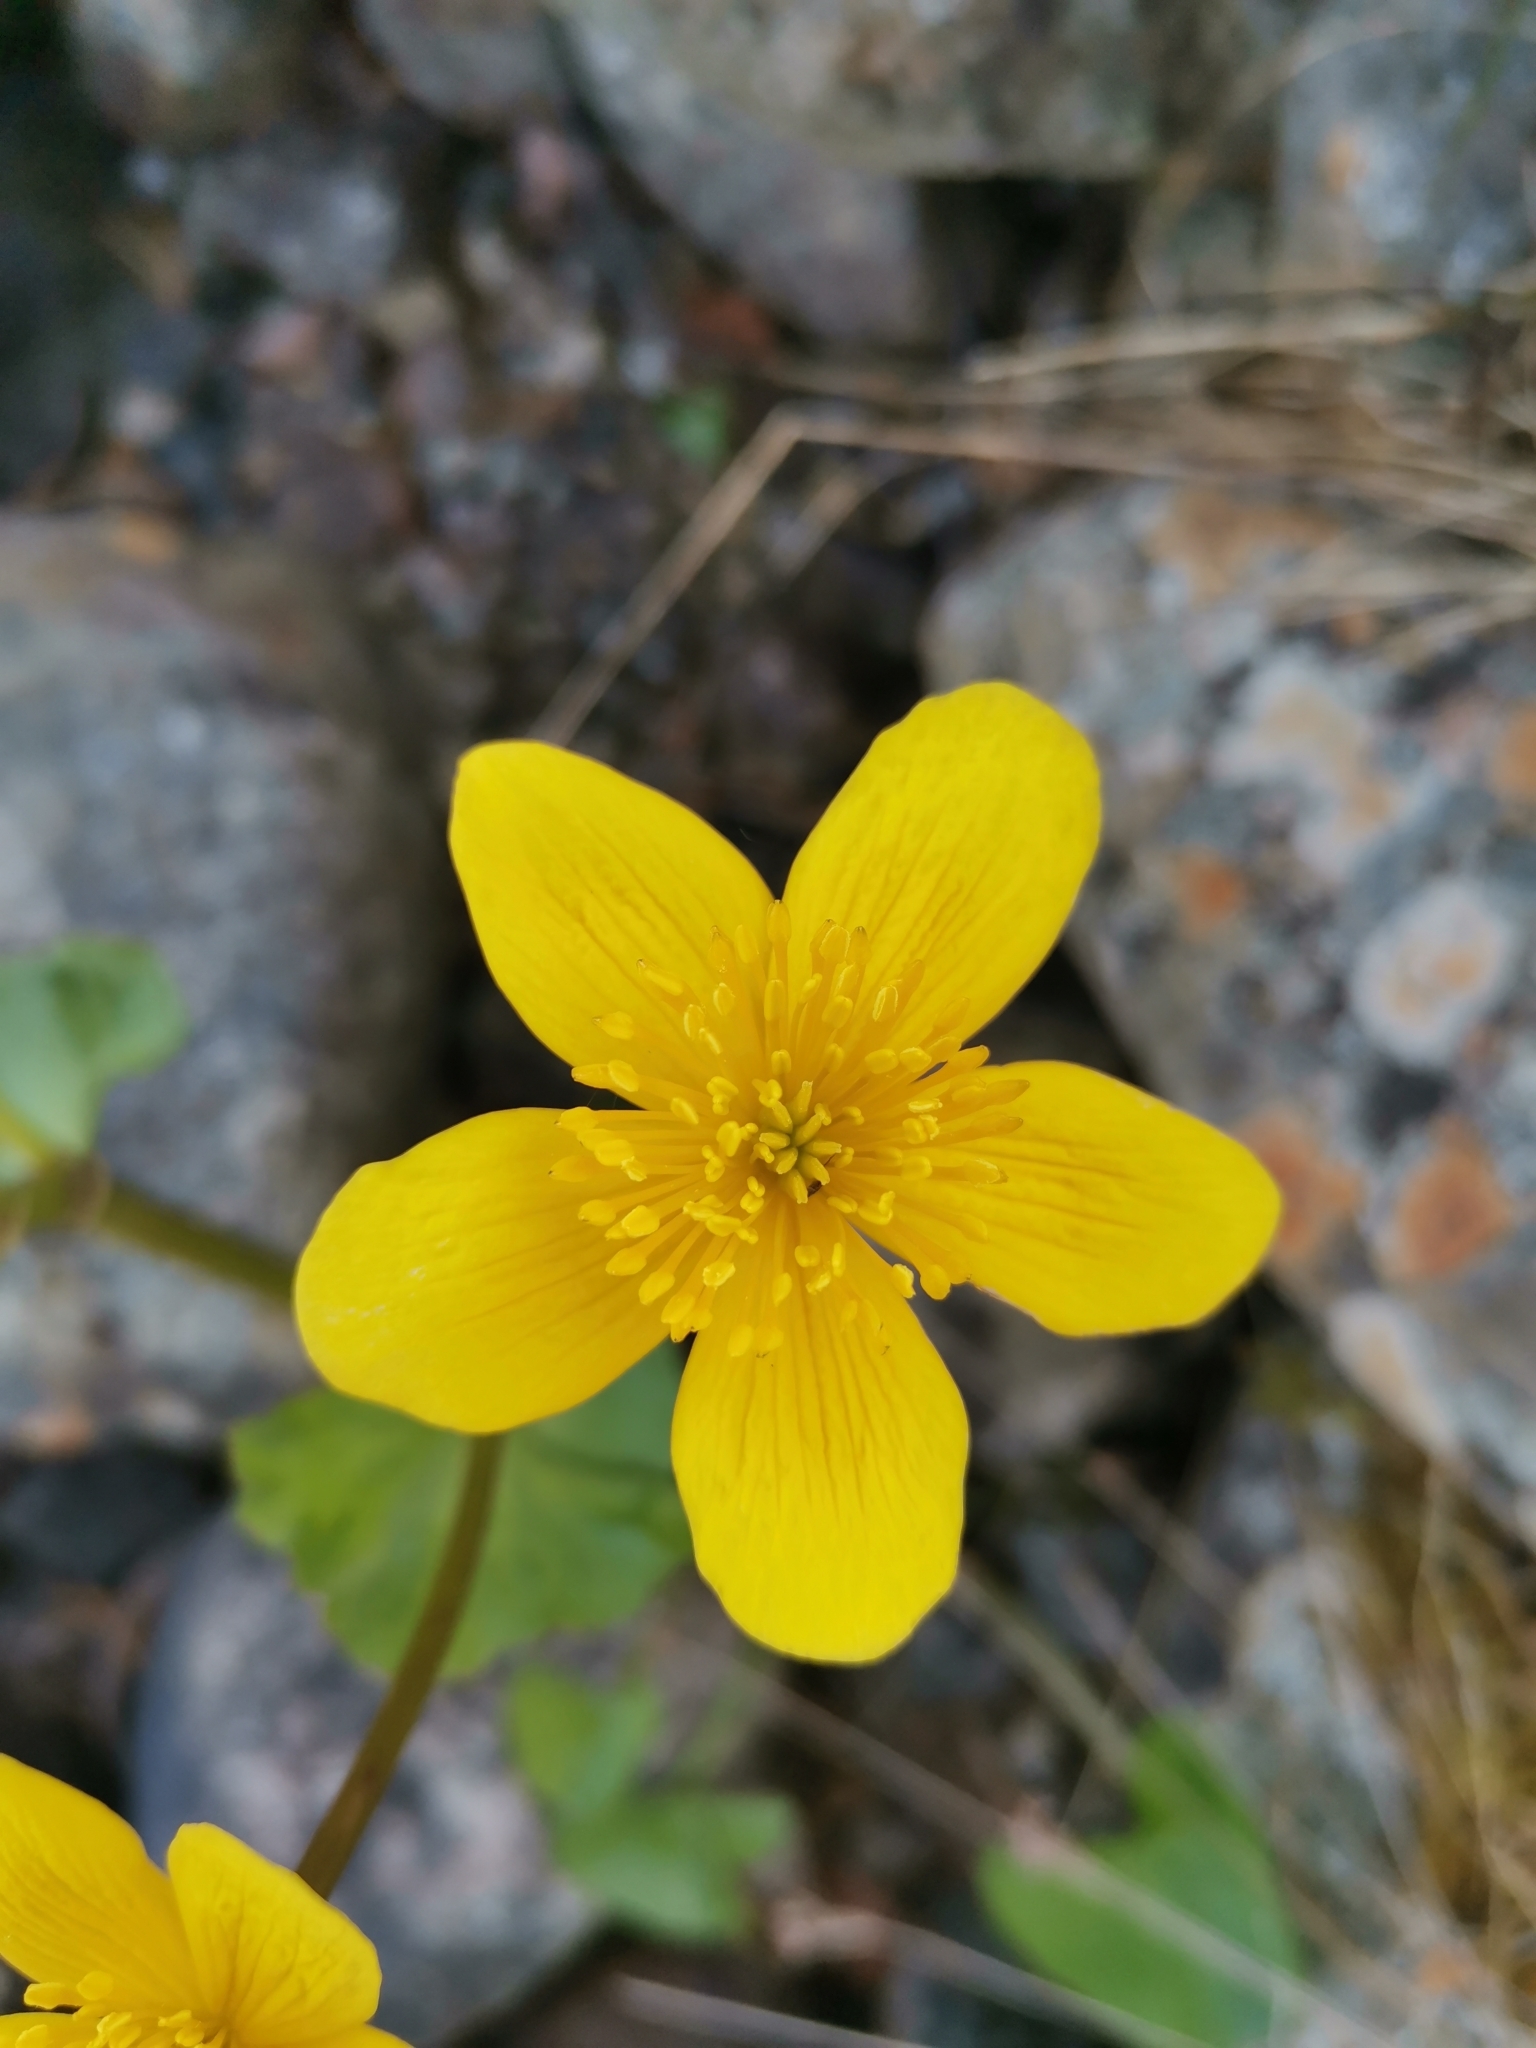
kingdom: Plantae
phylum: Tracheophyta
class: Magnoliopsida
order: Ranunculales
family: Ranunculaceae
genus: Caltha
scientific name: Caltha palustris
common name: Marsh marigold
